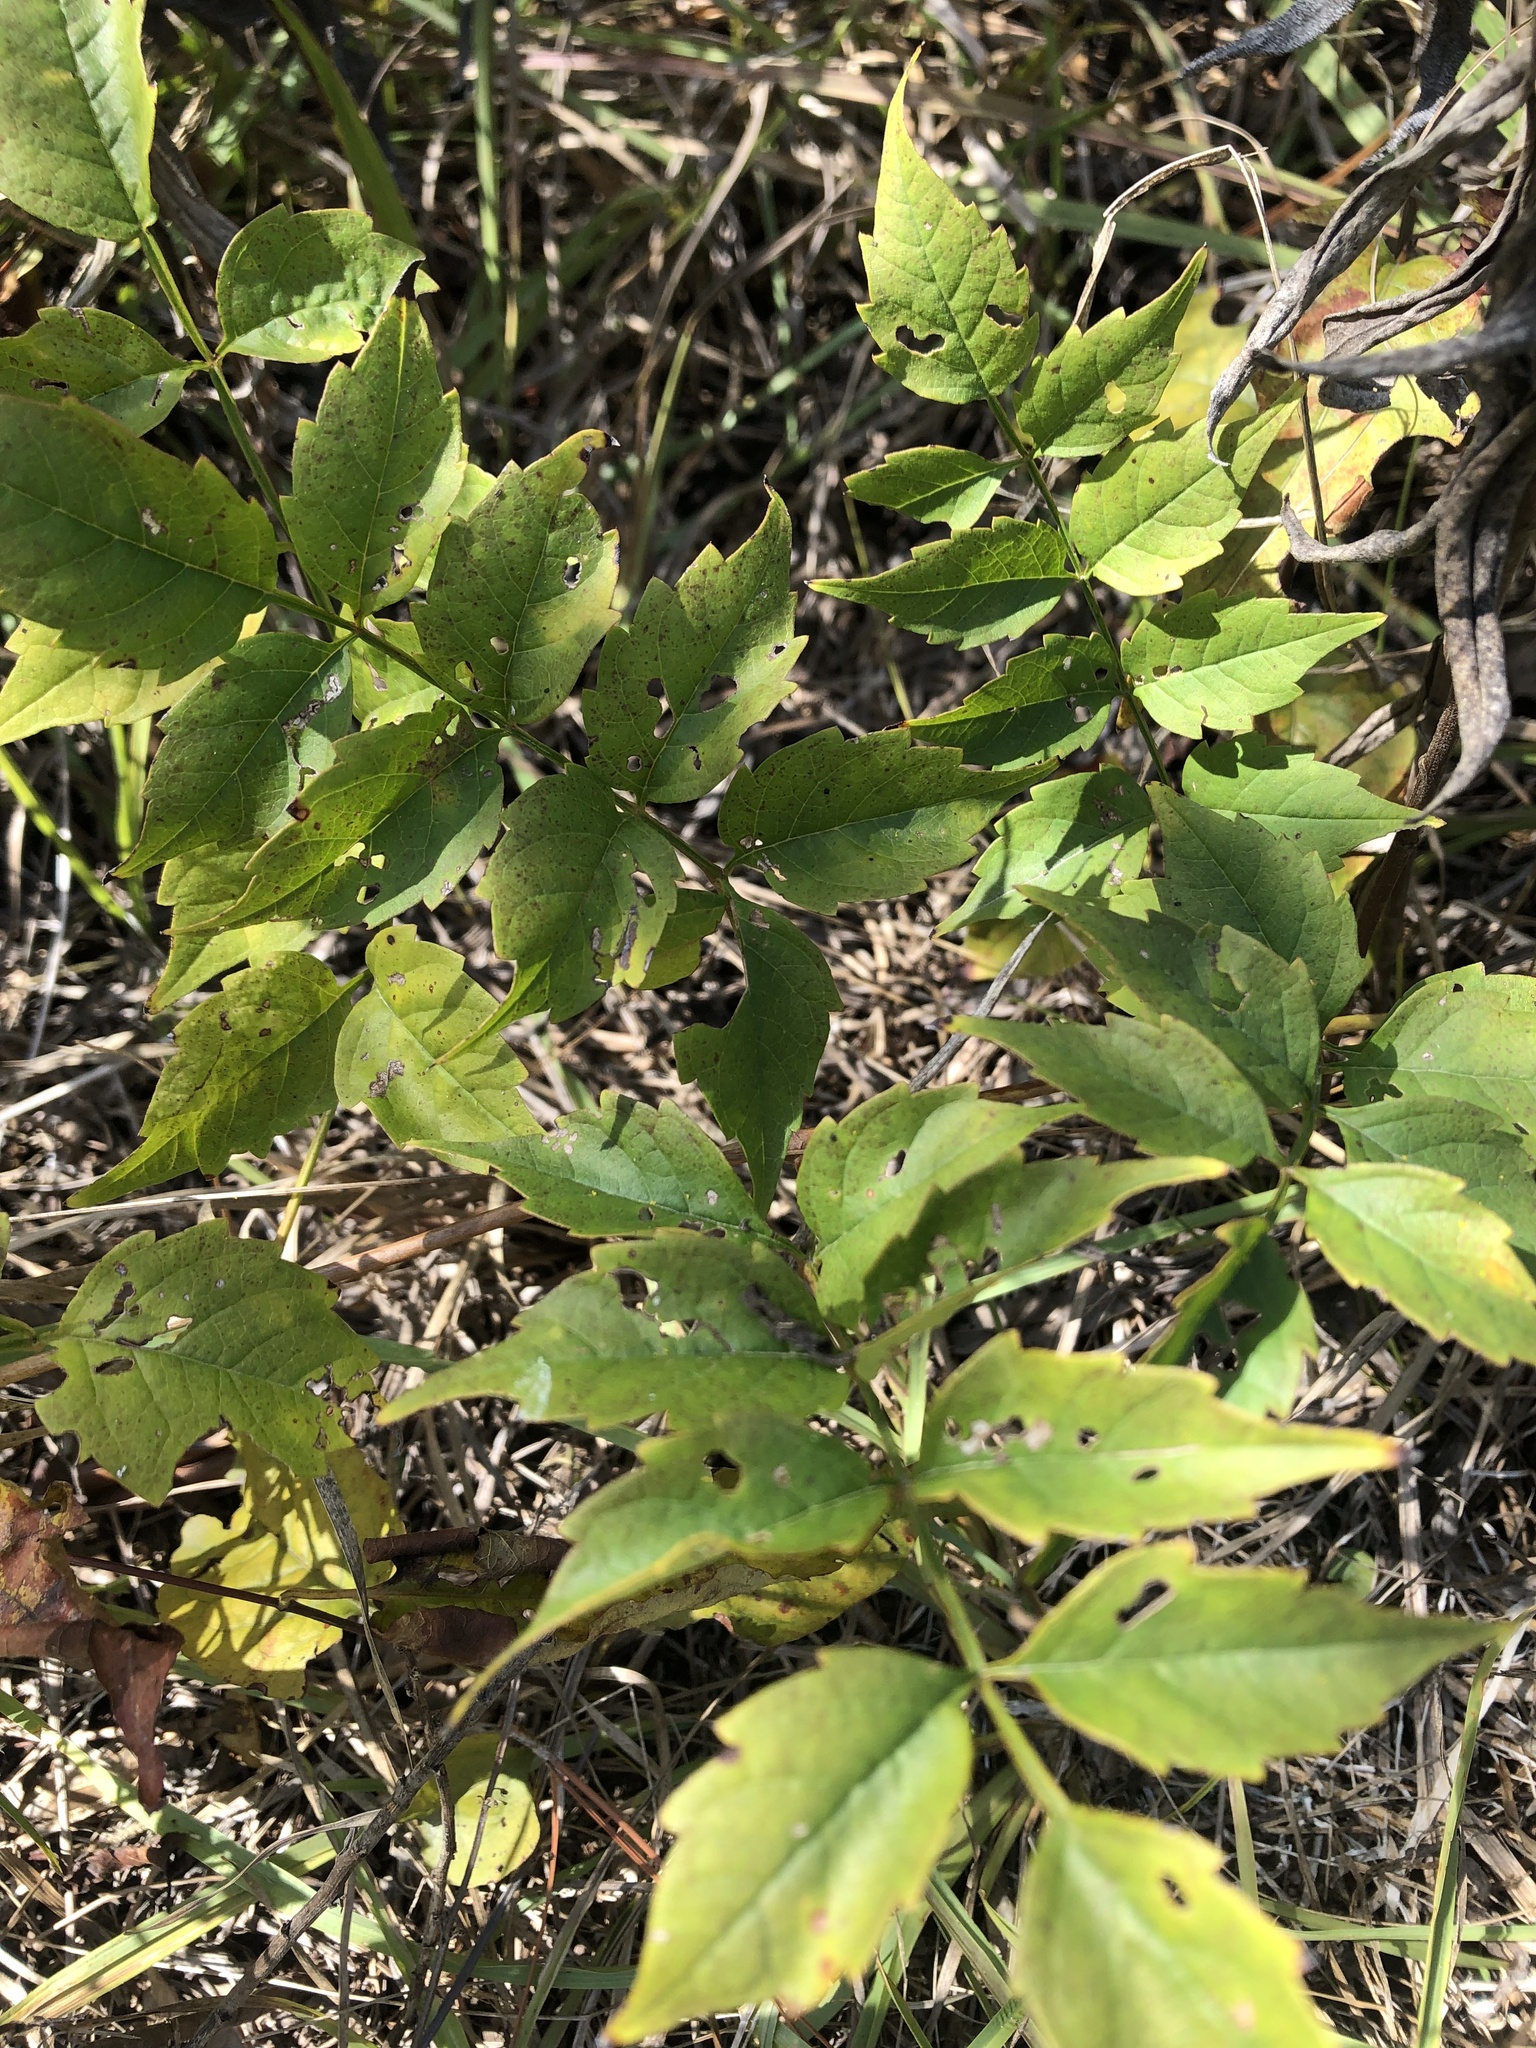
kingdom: Plantae
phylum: Tracheophyta
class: Magnoliopsida
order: Lamiales
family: Bignoniaceae
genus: Campsis
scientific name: Campsis radicans
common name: Trumpet-creeper
